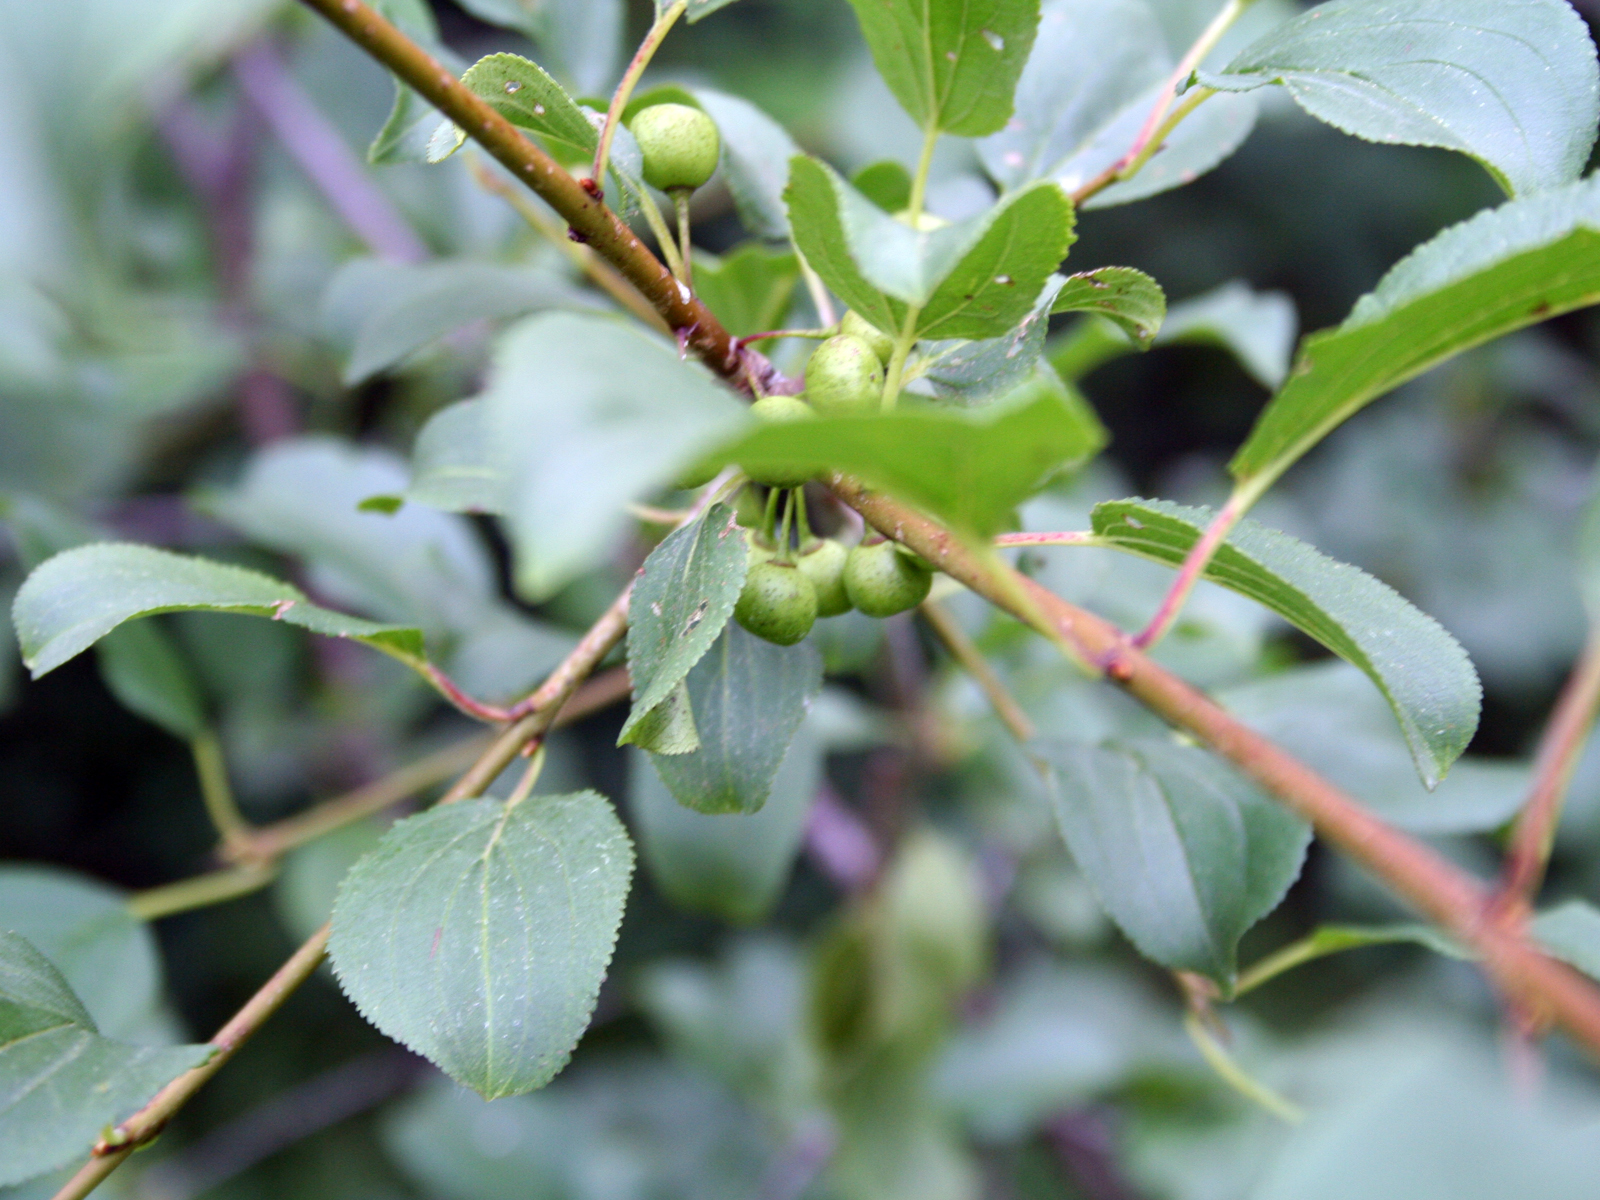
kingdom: Plantae
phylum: Tracheophyta
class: Magnoliopsida
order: Rosales
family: Rhamnaceae
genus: Rhamnus
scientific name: Rhamnus cathartica
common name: Common buckthorn
